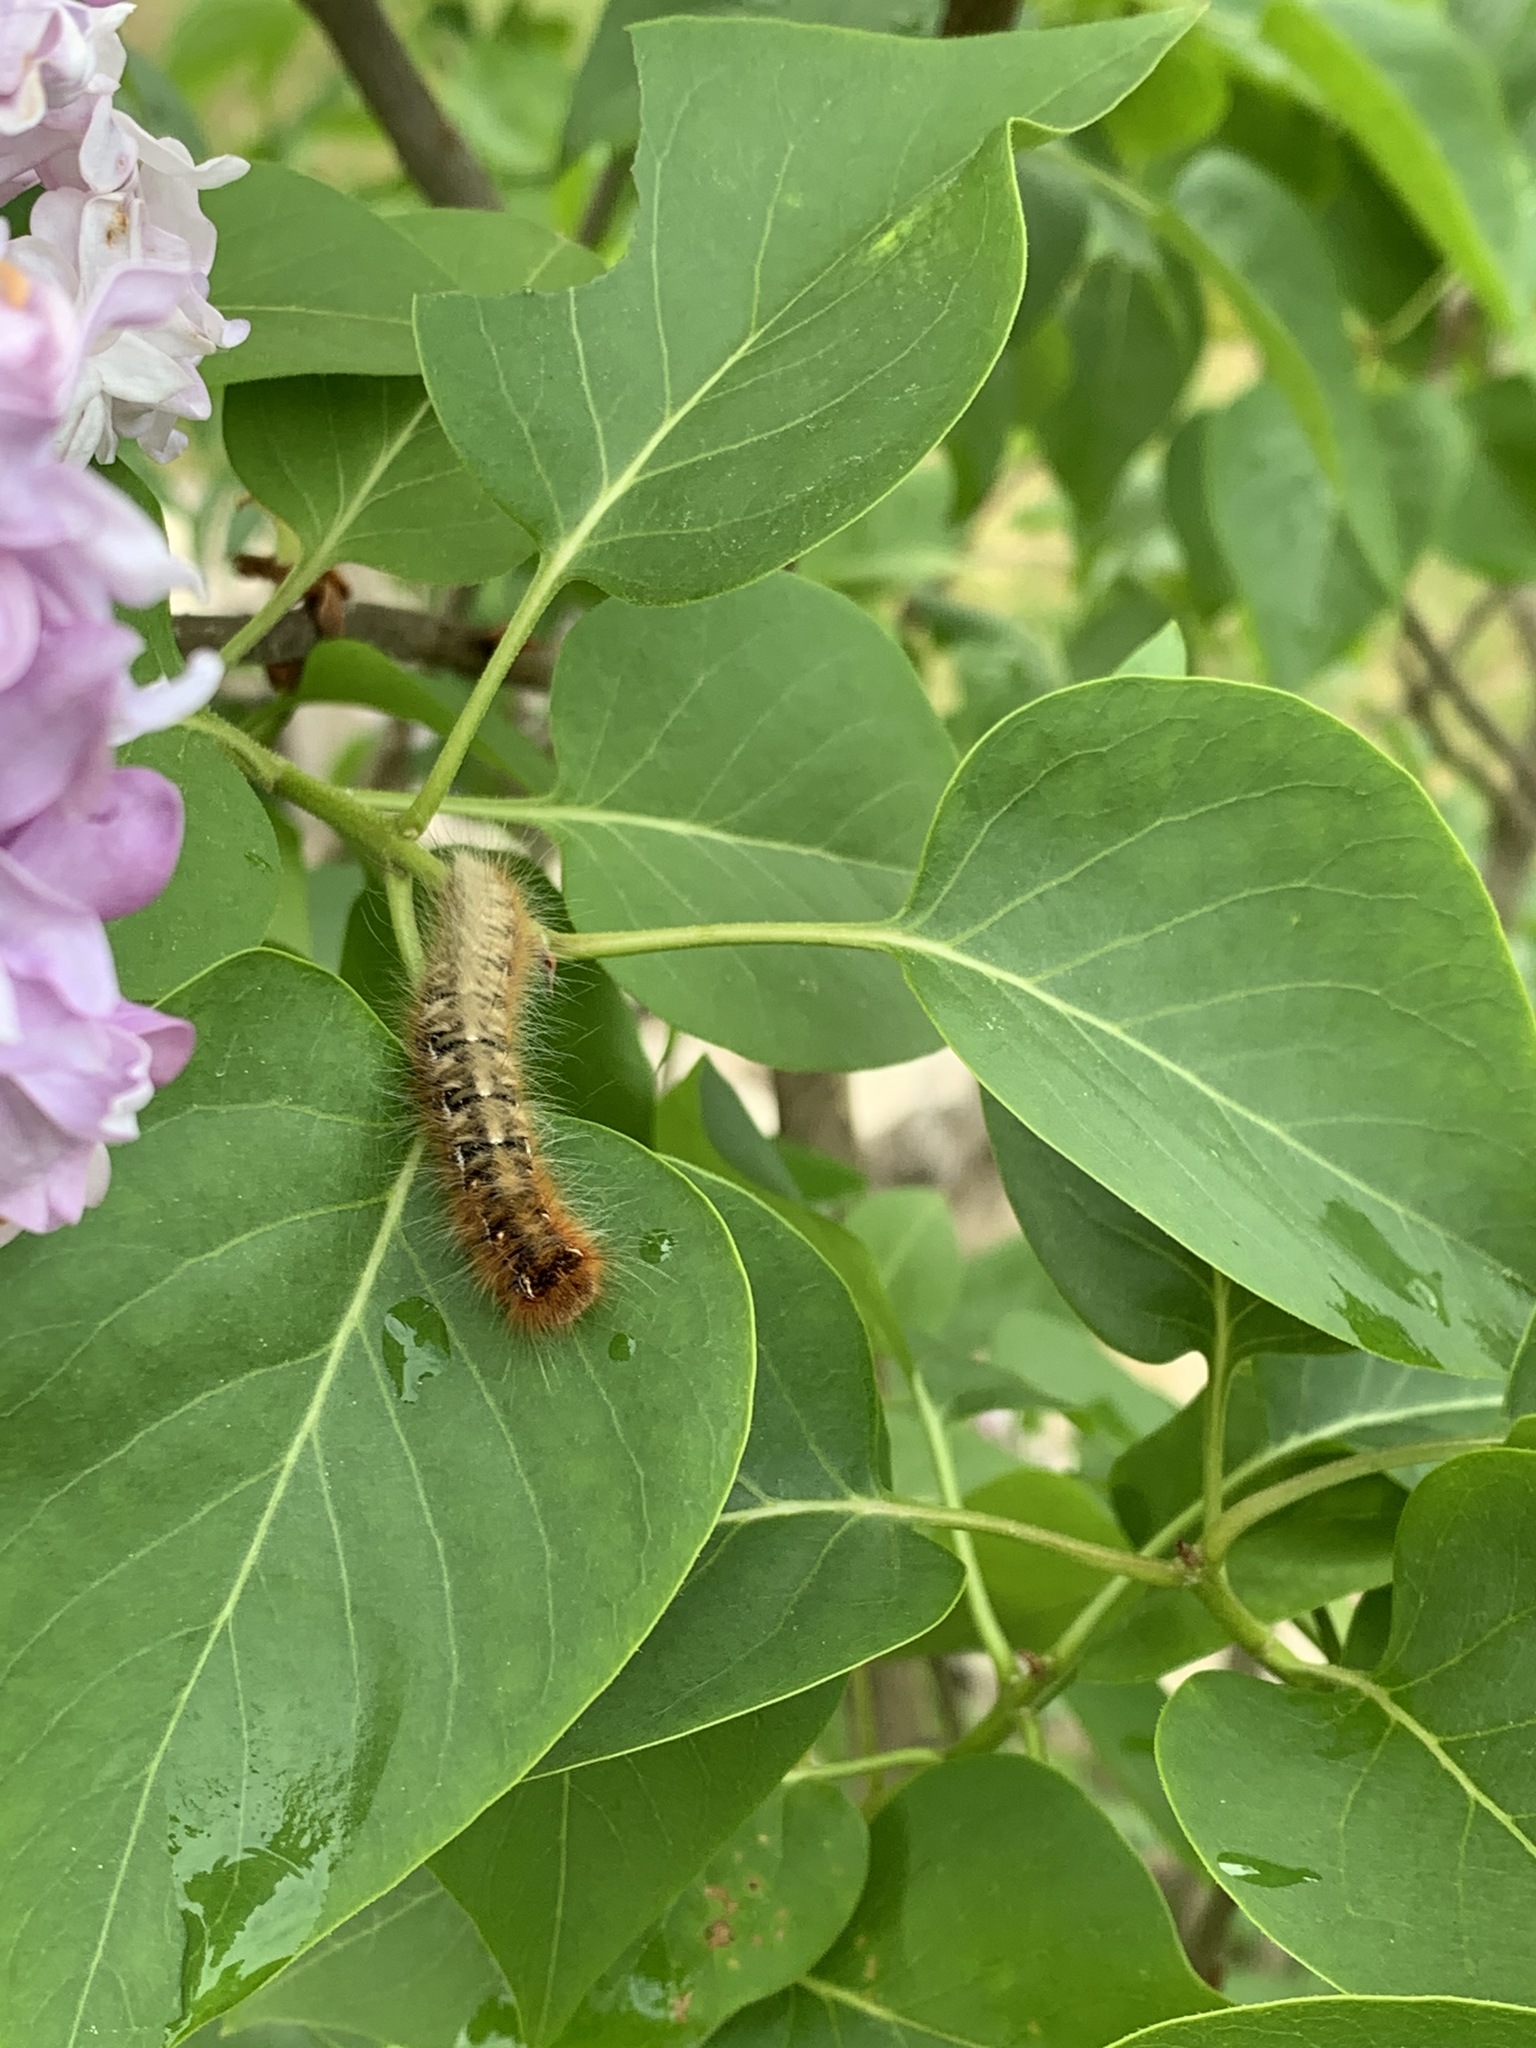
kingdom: Animalia
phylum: Arthropoda
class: Insecta
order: Lepidoptera
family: Lasiocampidae
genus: Lasiocampa
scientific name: Lasiocampa quercus
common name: Oak eggar
